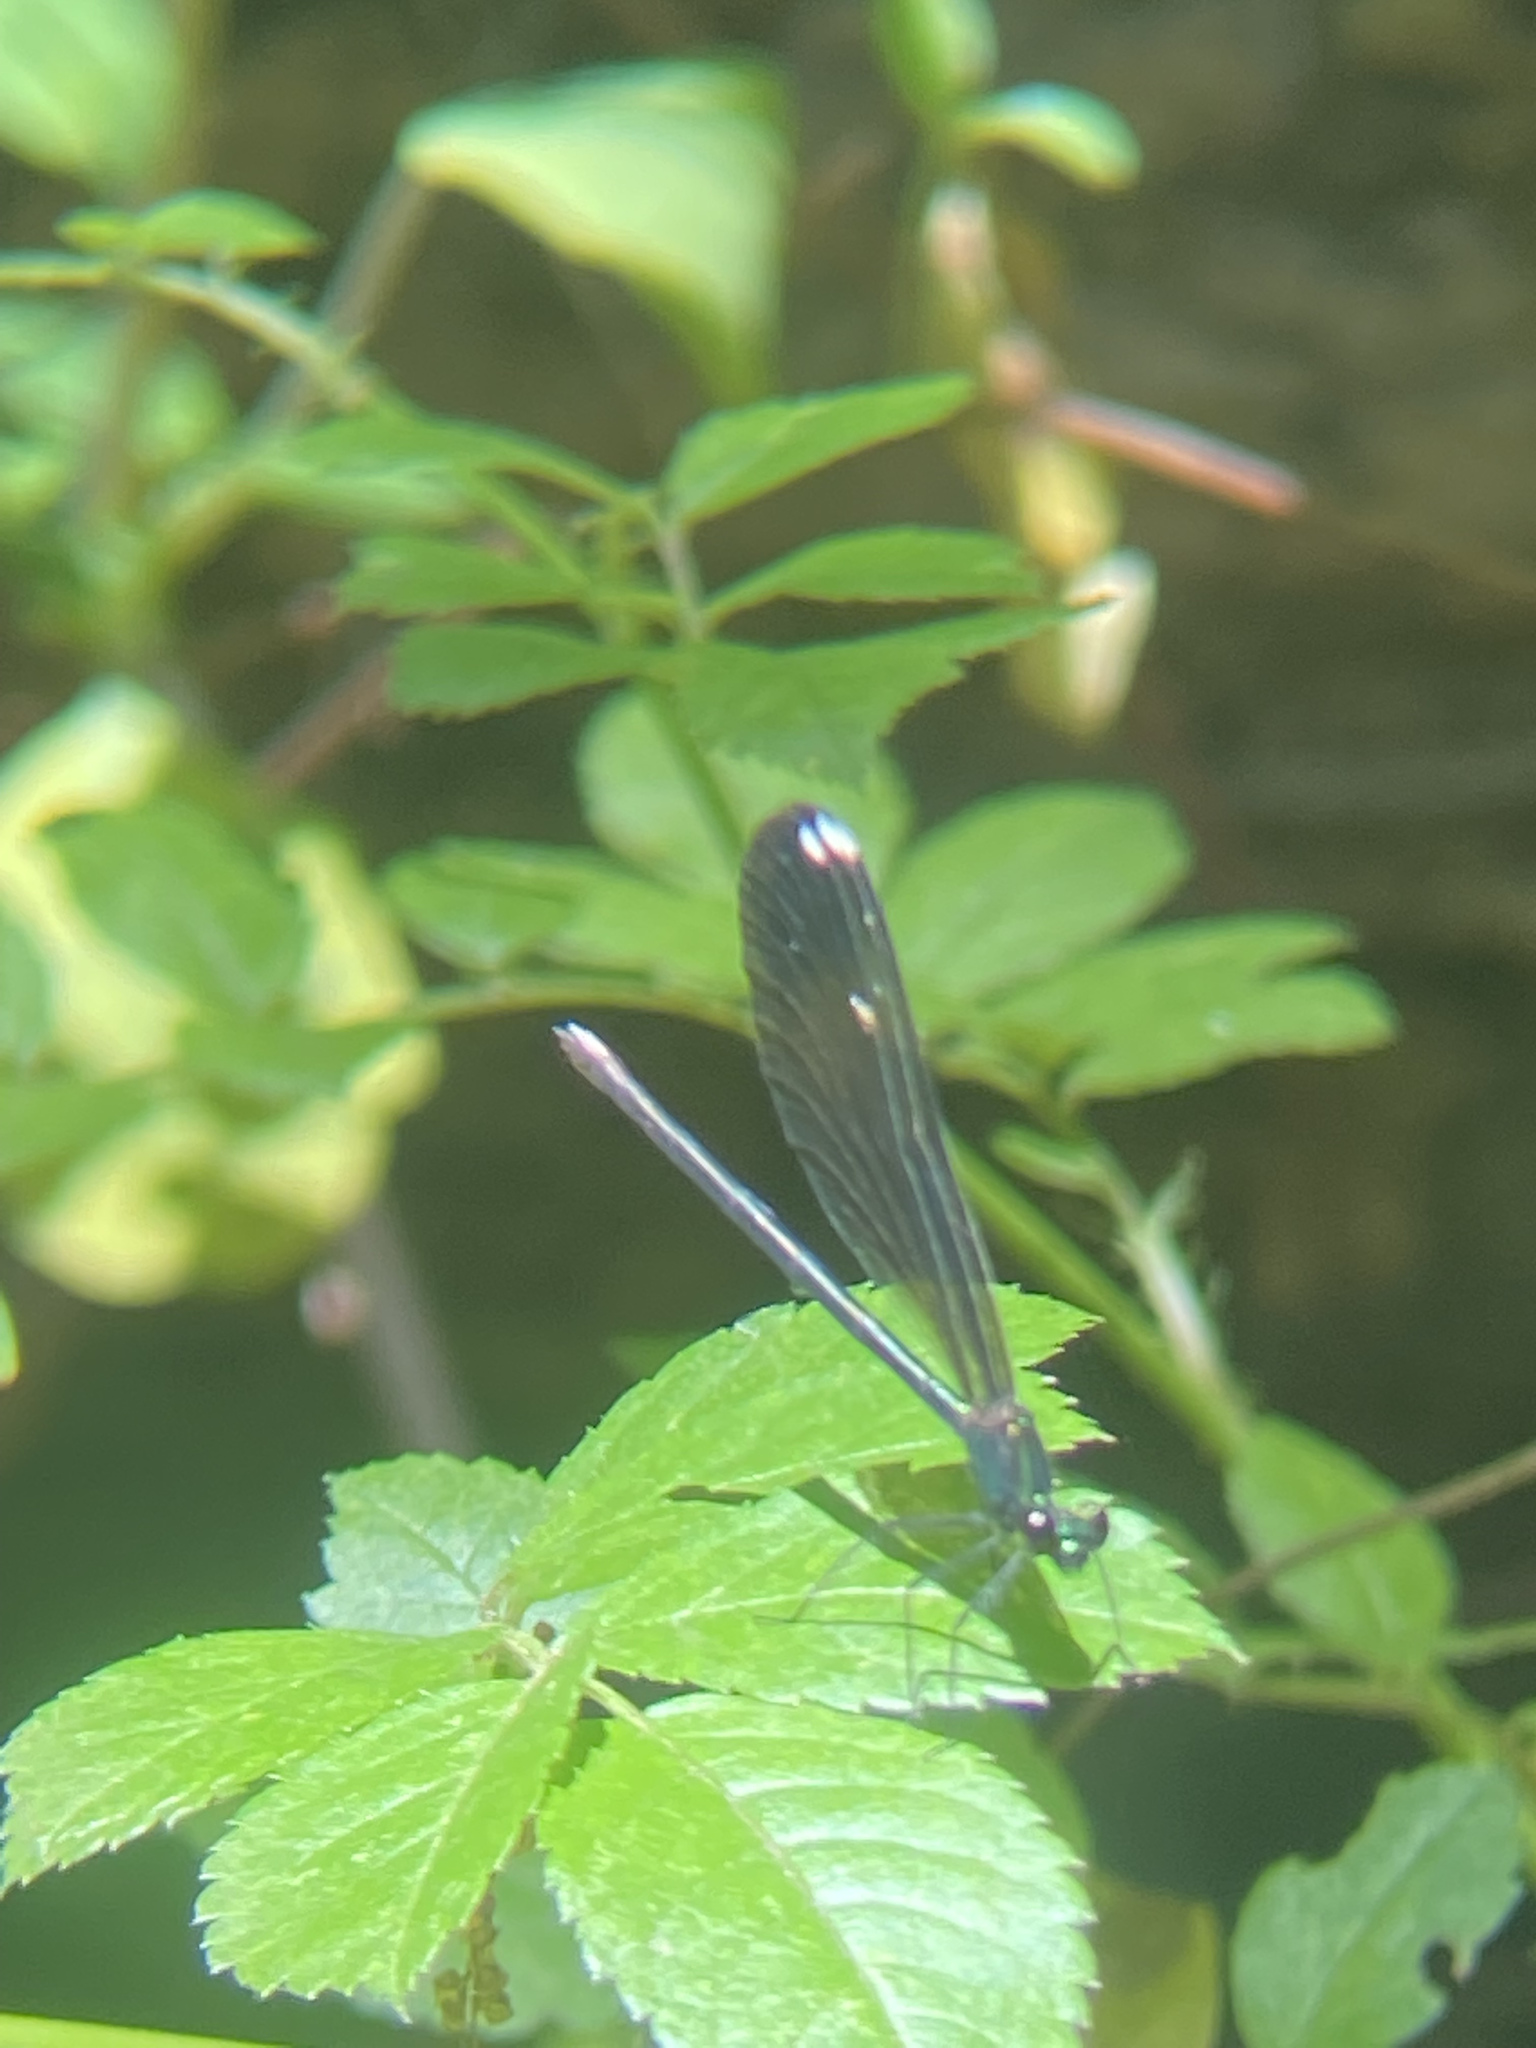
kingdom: Animalia
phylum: Arthropoda
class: Insecta
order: Odonata
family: Calopterygidae
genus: Calopteryx
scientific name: Calopteryx maculata
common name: Ebony jewelwing
